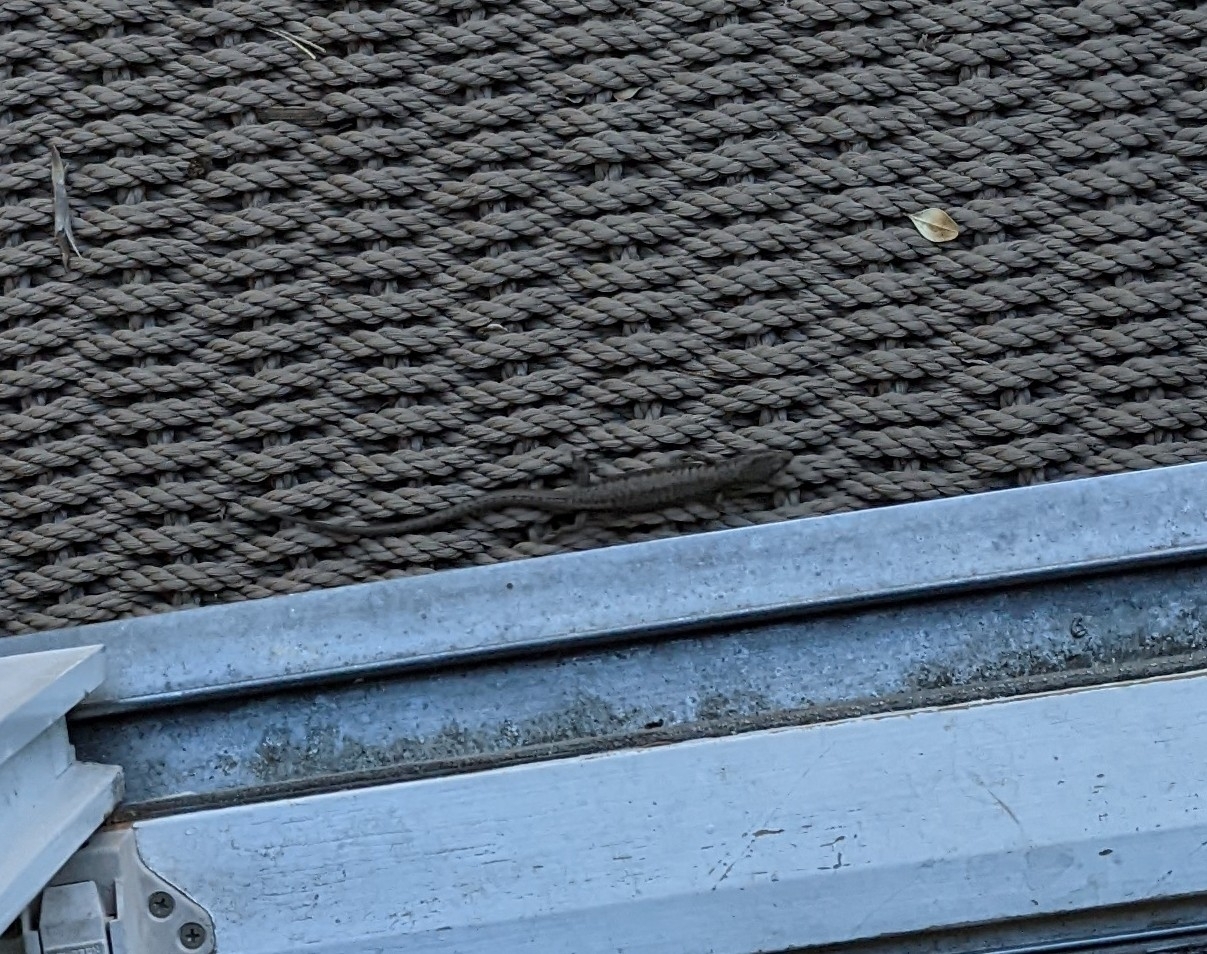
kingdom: Animalia
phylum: Chordata
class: Squamata
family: Anguidae
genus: Elgaria
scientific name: Elgaria coerulea
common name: Northern alligator lizard
